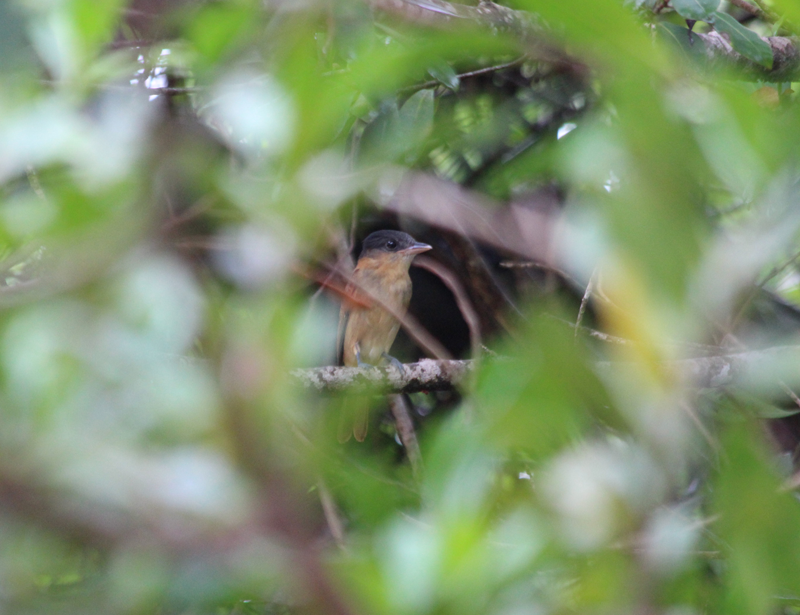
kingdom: Animalia
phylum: Chordata
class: Aves
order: Passeriformes
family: Cotingidae
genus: Pachyramphus
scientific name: Pachyramphus aglaiae
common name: Rose-throated becard
